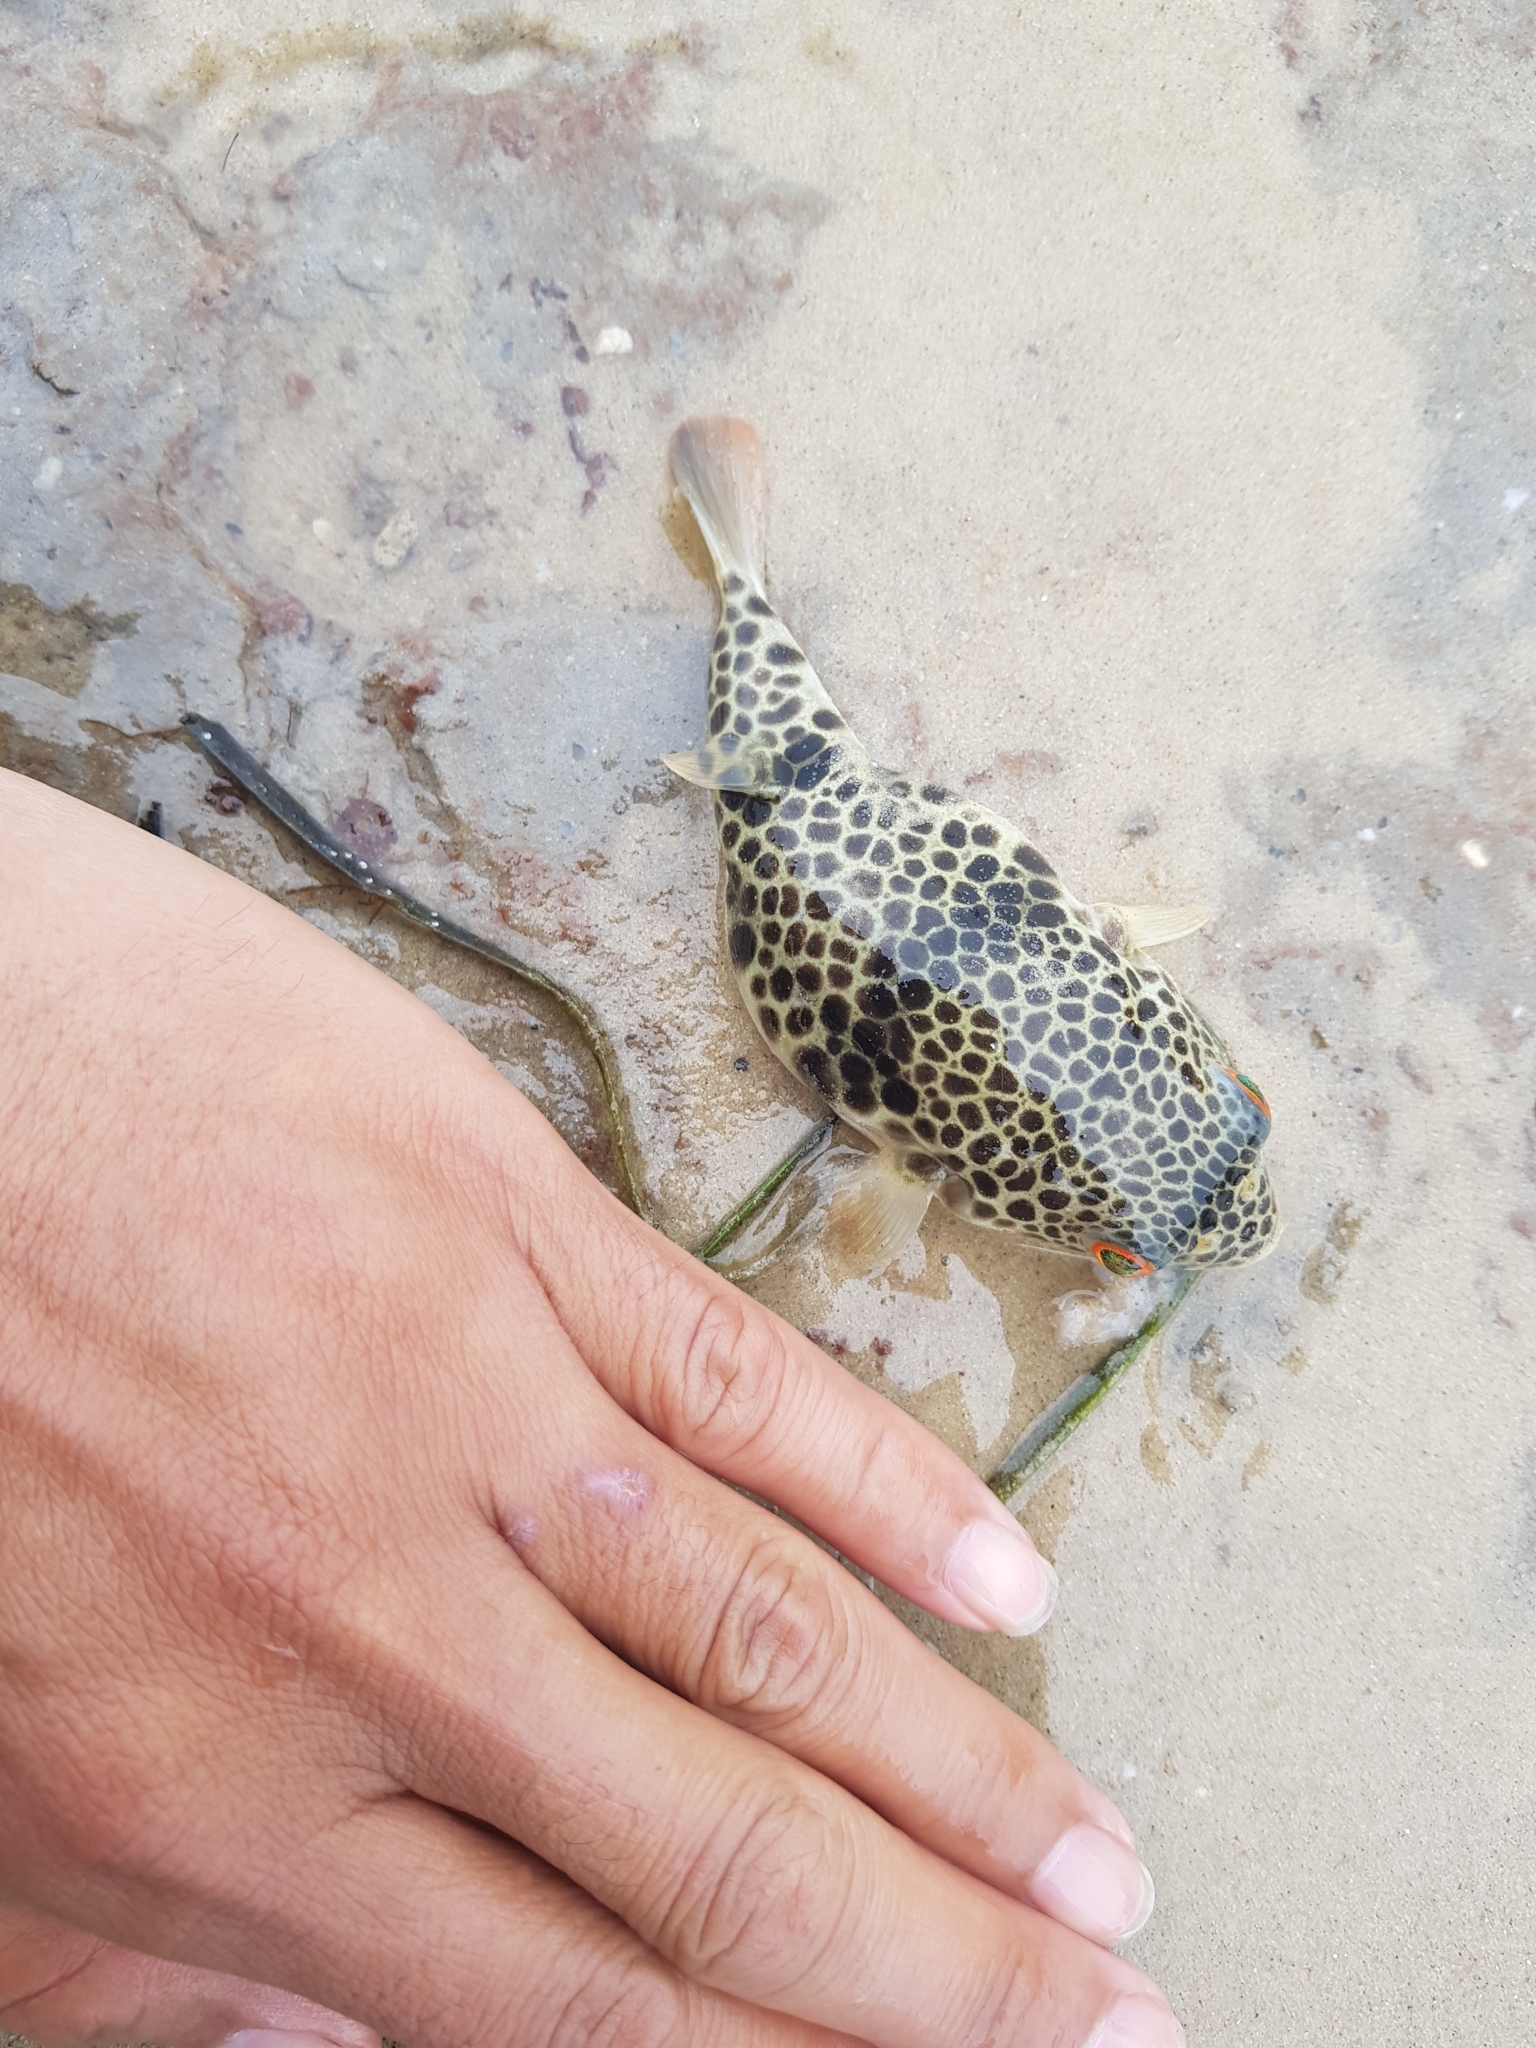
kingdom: Animalia
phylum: Chordata
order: Tetraodontiformes
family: Tetraodontidae
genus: Tetractenos
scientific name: Tetractenos glaber
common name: Smooth toadfish
